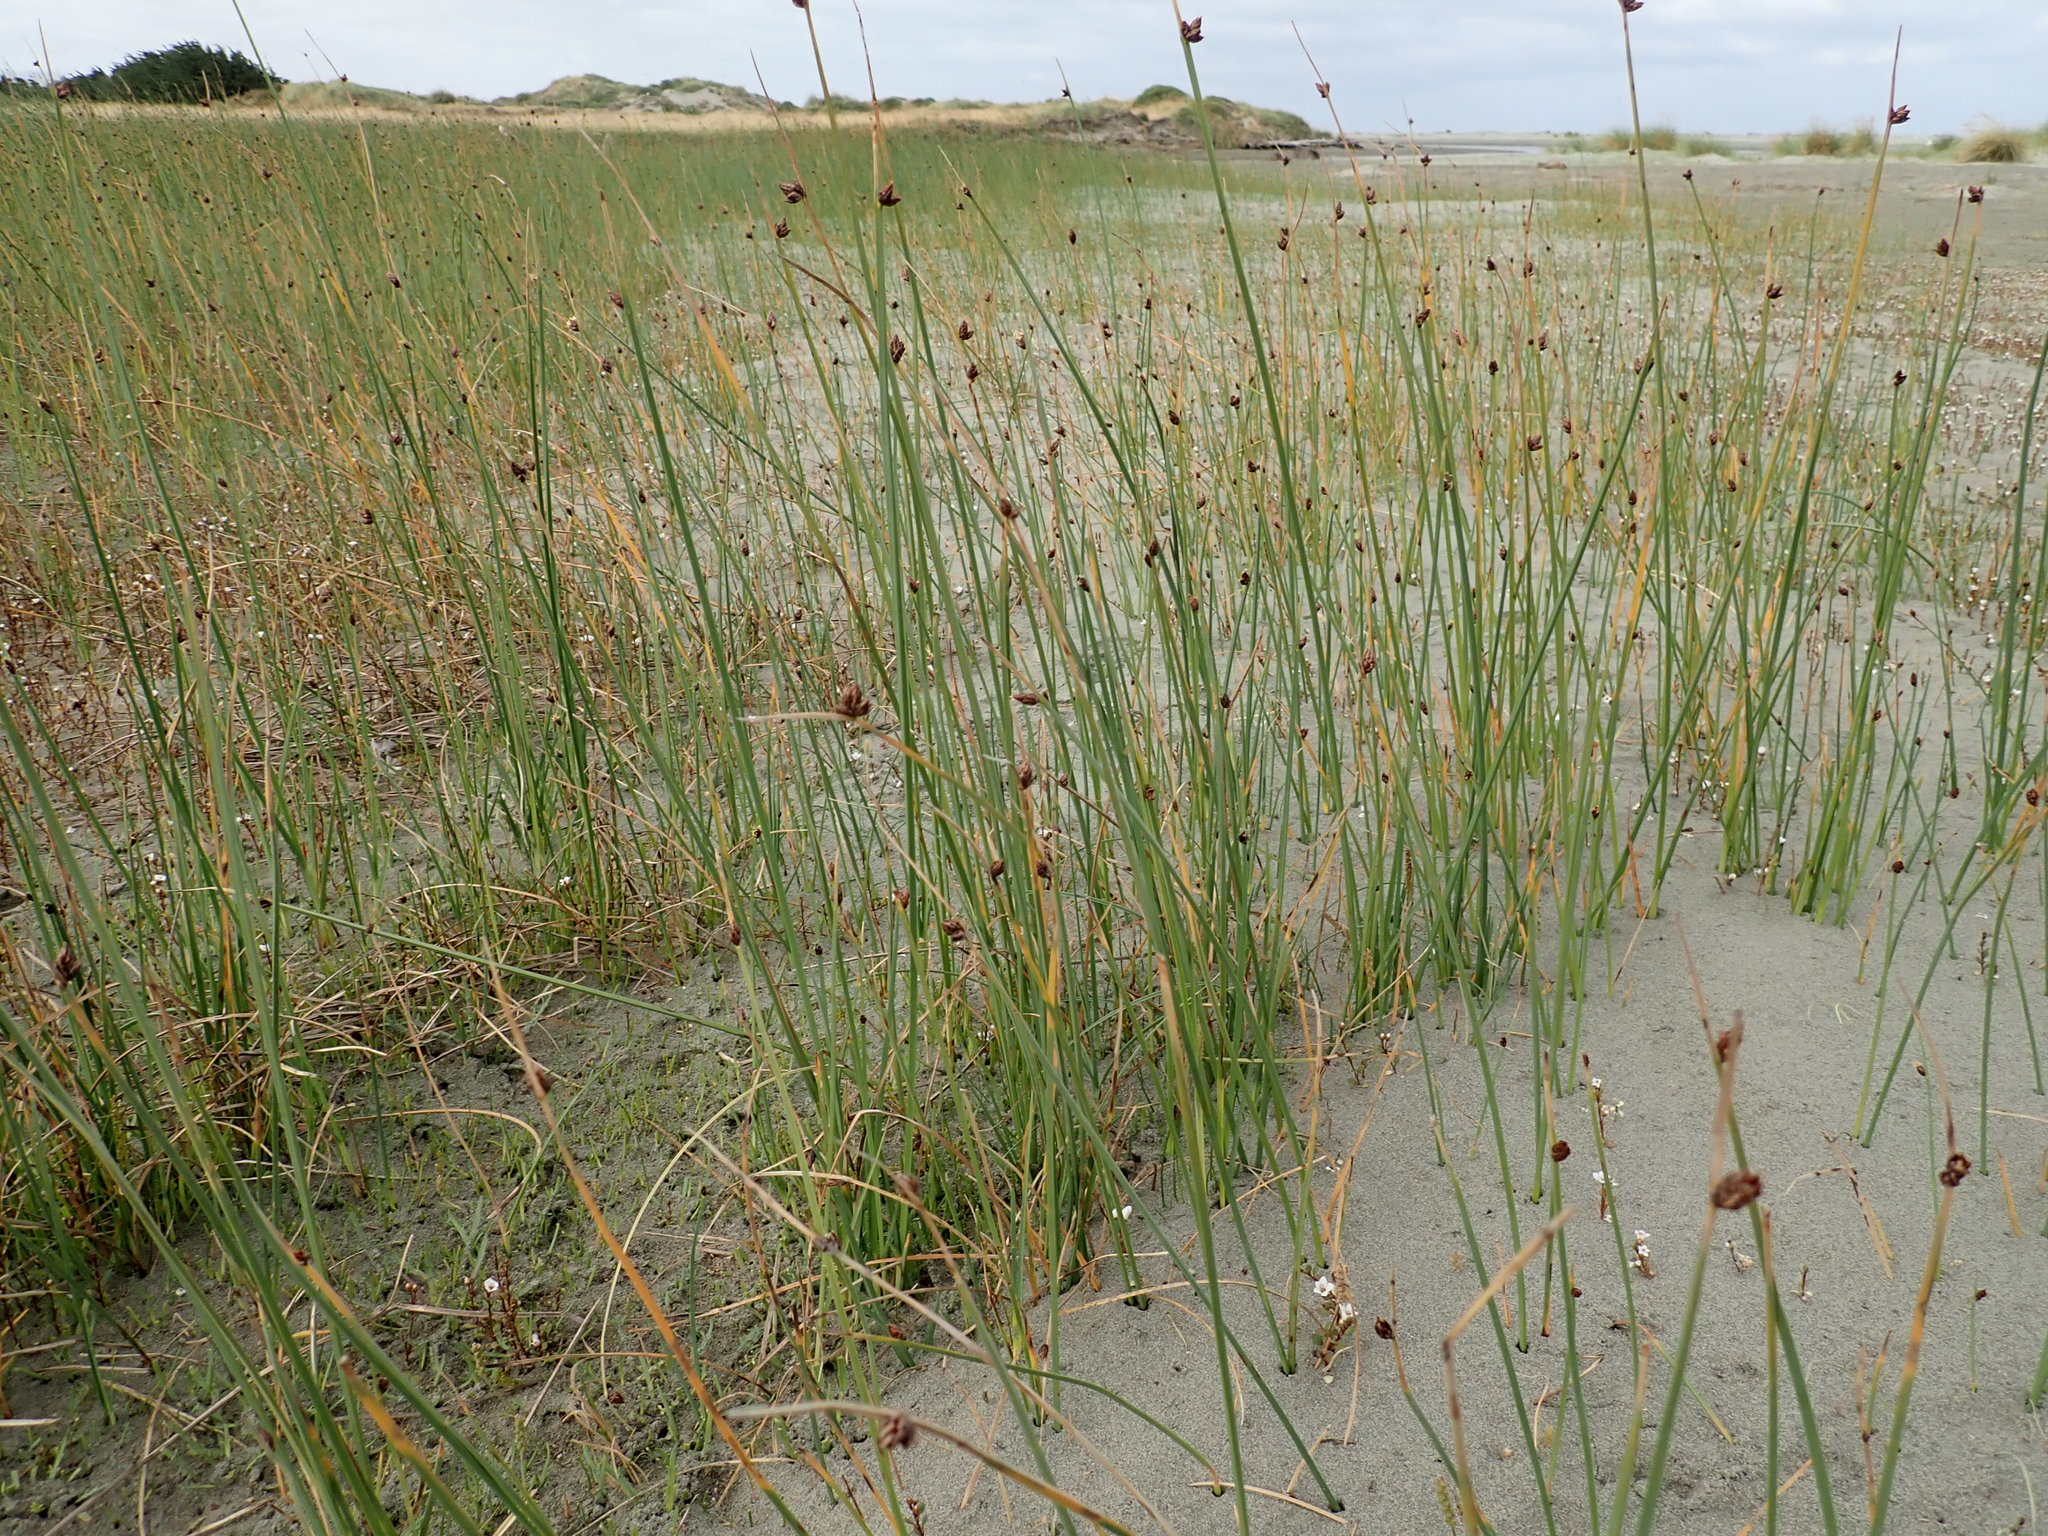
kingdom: Plantae
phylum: Tracheophyta
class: Liliopsida
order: Poales
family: Cyperaceae
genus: Schoenoplectus
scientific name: Schoenoplectus pungens
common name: Sharp club-rush
